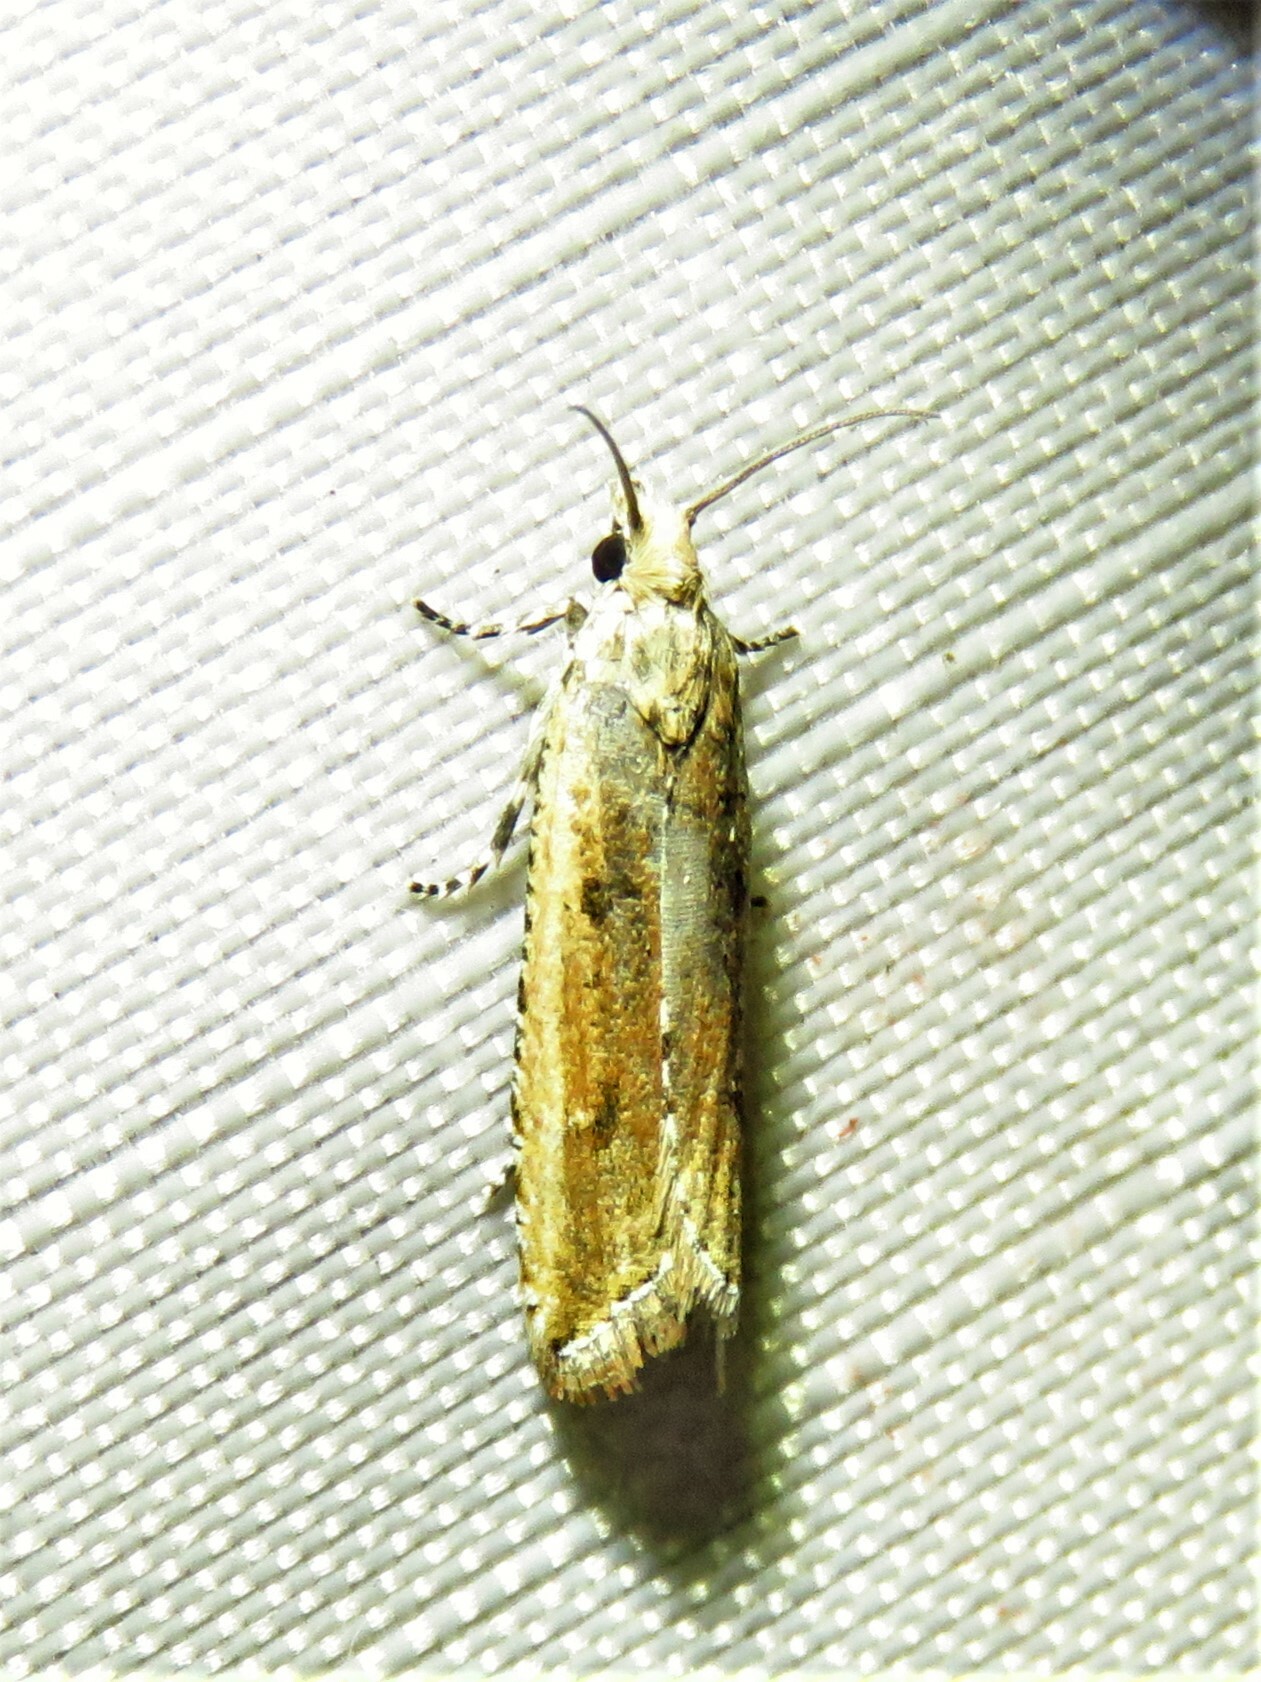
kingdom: Animalia
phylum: Arthropoda
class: Insecta
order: Lepidoptera
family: Tortricidae
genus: Bactra
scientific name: Bactra verutana
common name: Javelin moth
